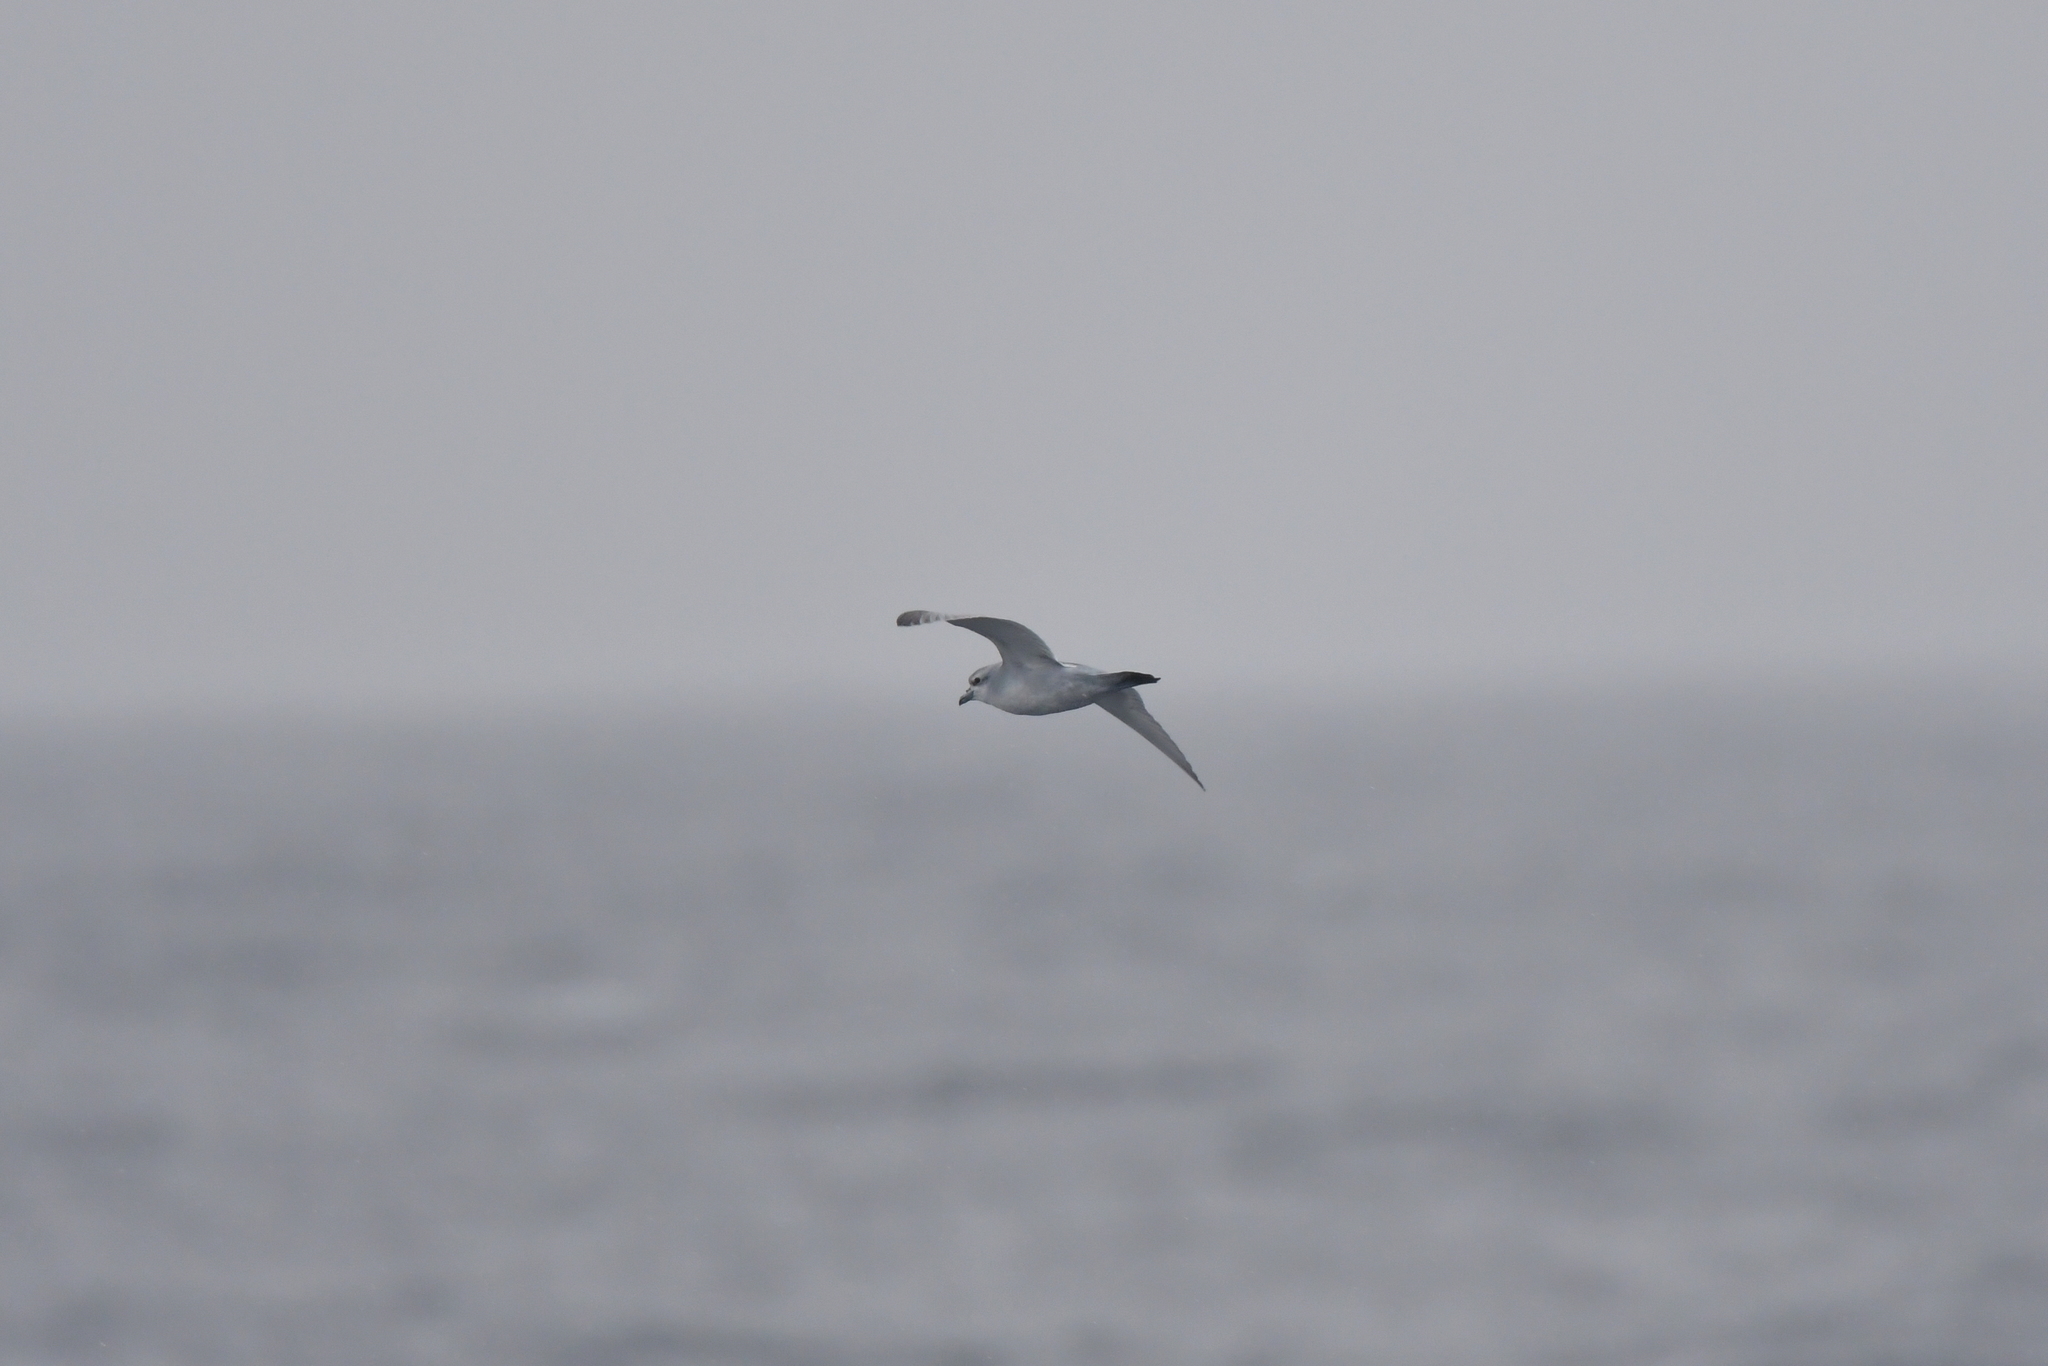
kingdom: Animalia
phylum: Chordata
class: Aves
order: Procellariiformes
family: Procellariidae
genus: Pachyptila
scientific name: Pachyptila crassirostris
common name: Fulmar prion
